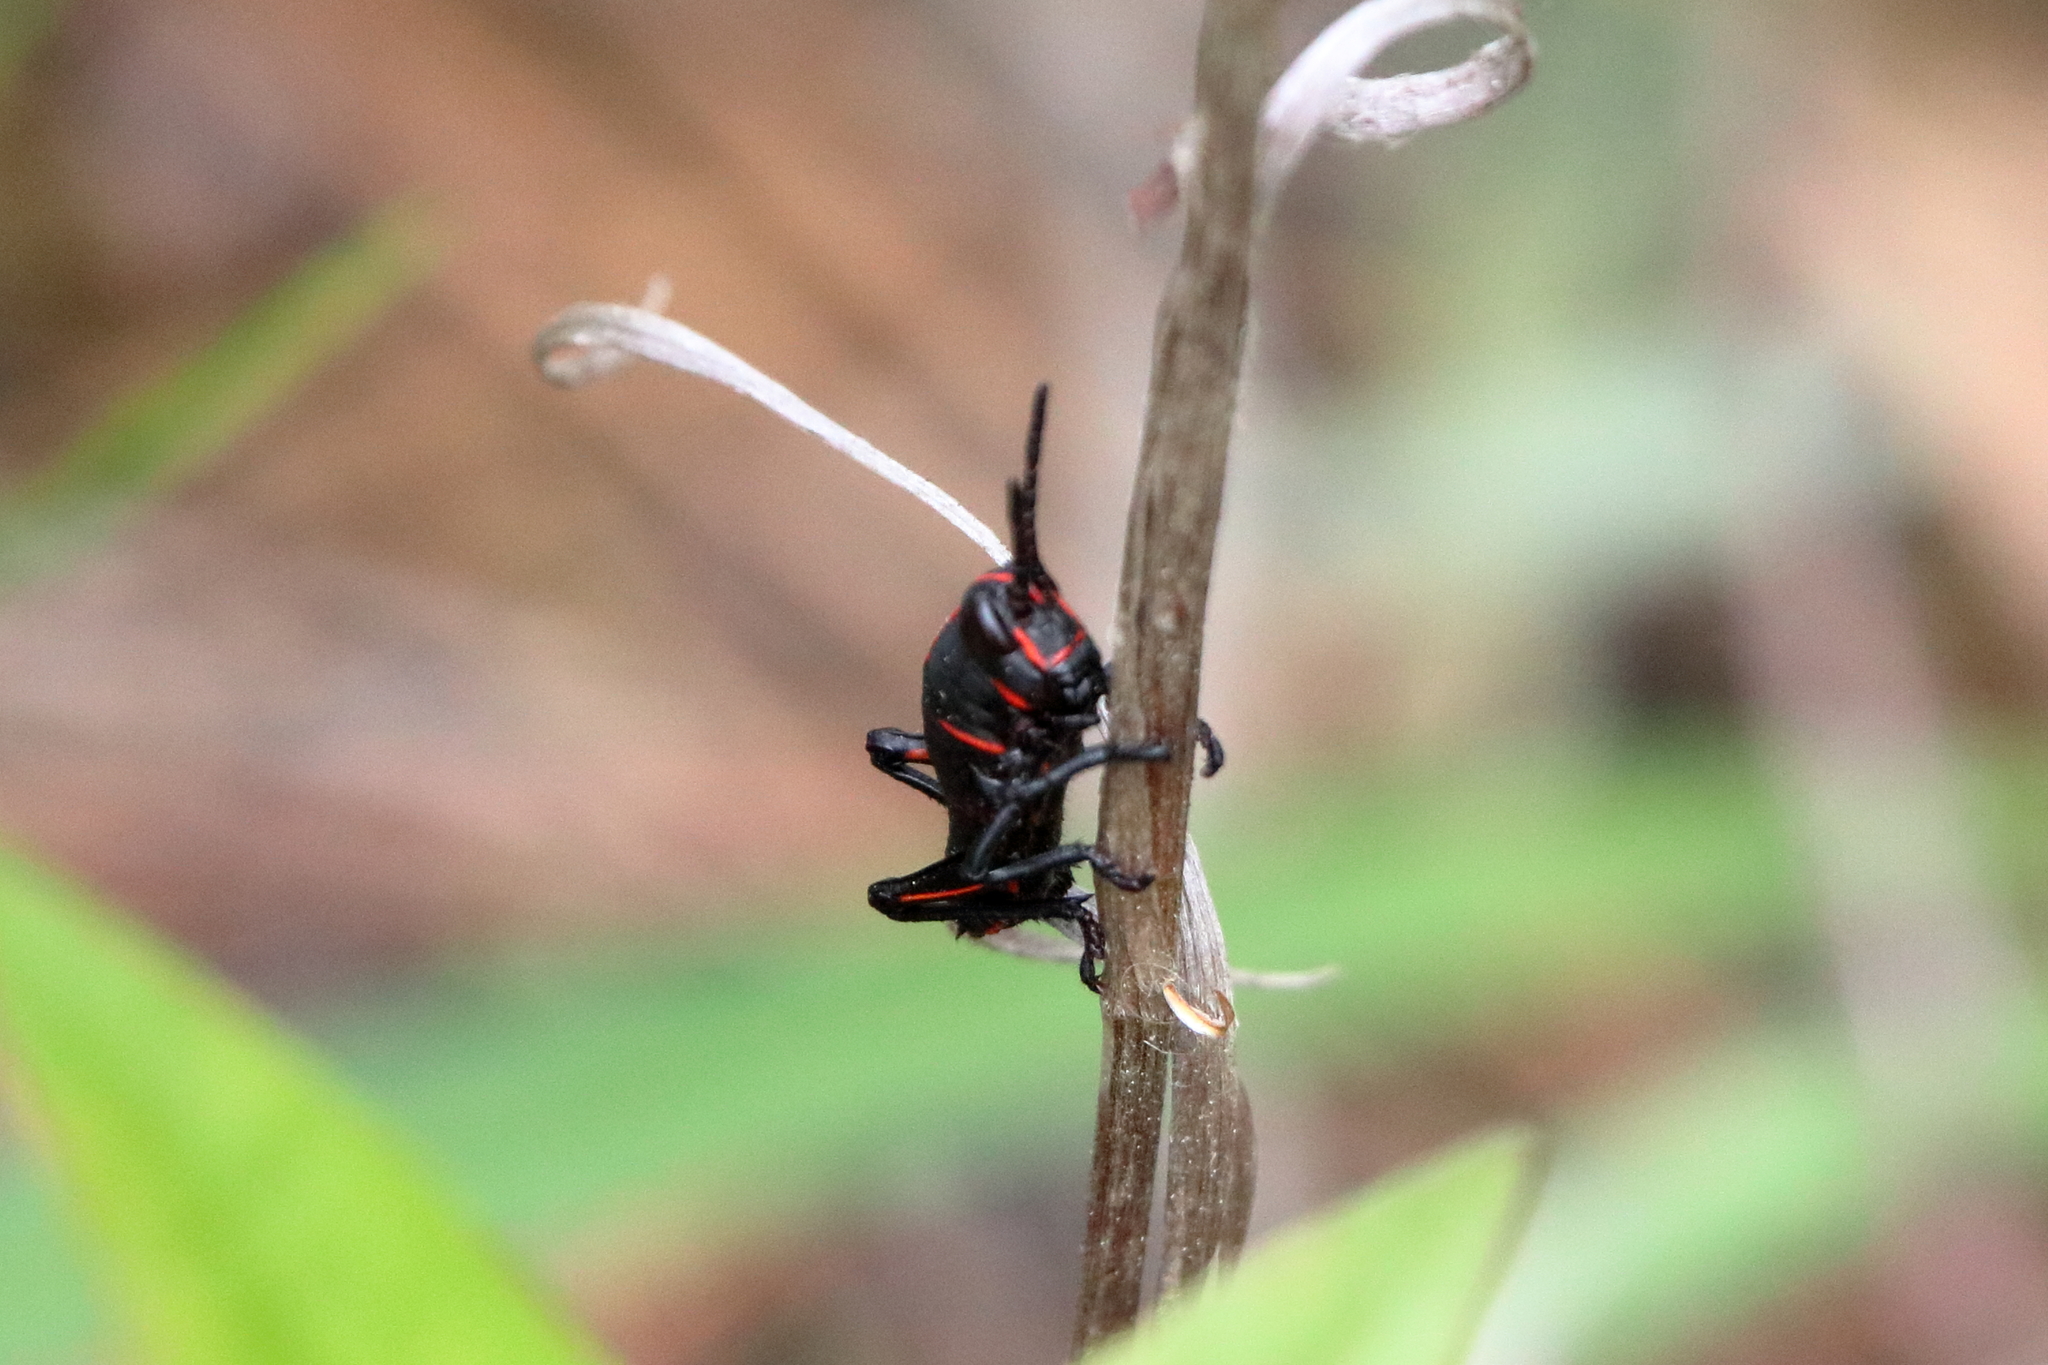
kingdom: Animalia
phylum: Arthropoda
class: Insecta
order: Orthoptera
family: Romaleidae
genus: Romalea
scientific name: Romalea microptera
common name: Eastern lubber grasshopper
